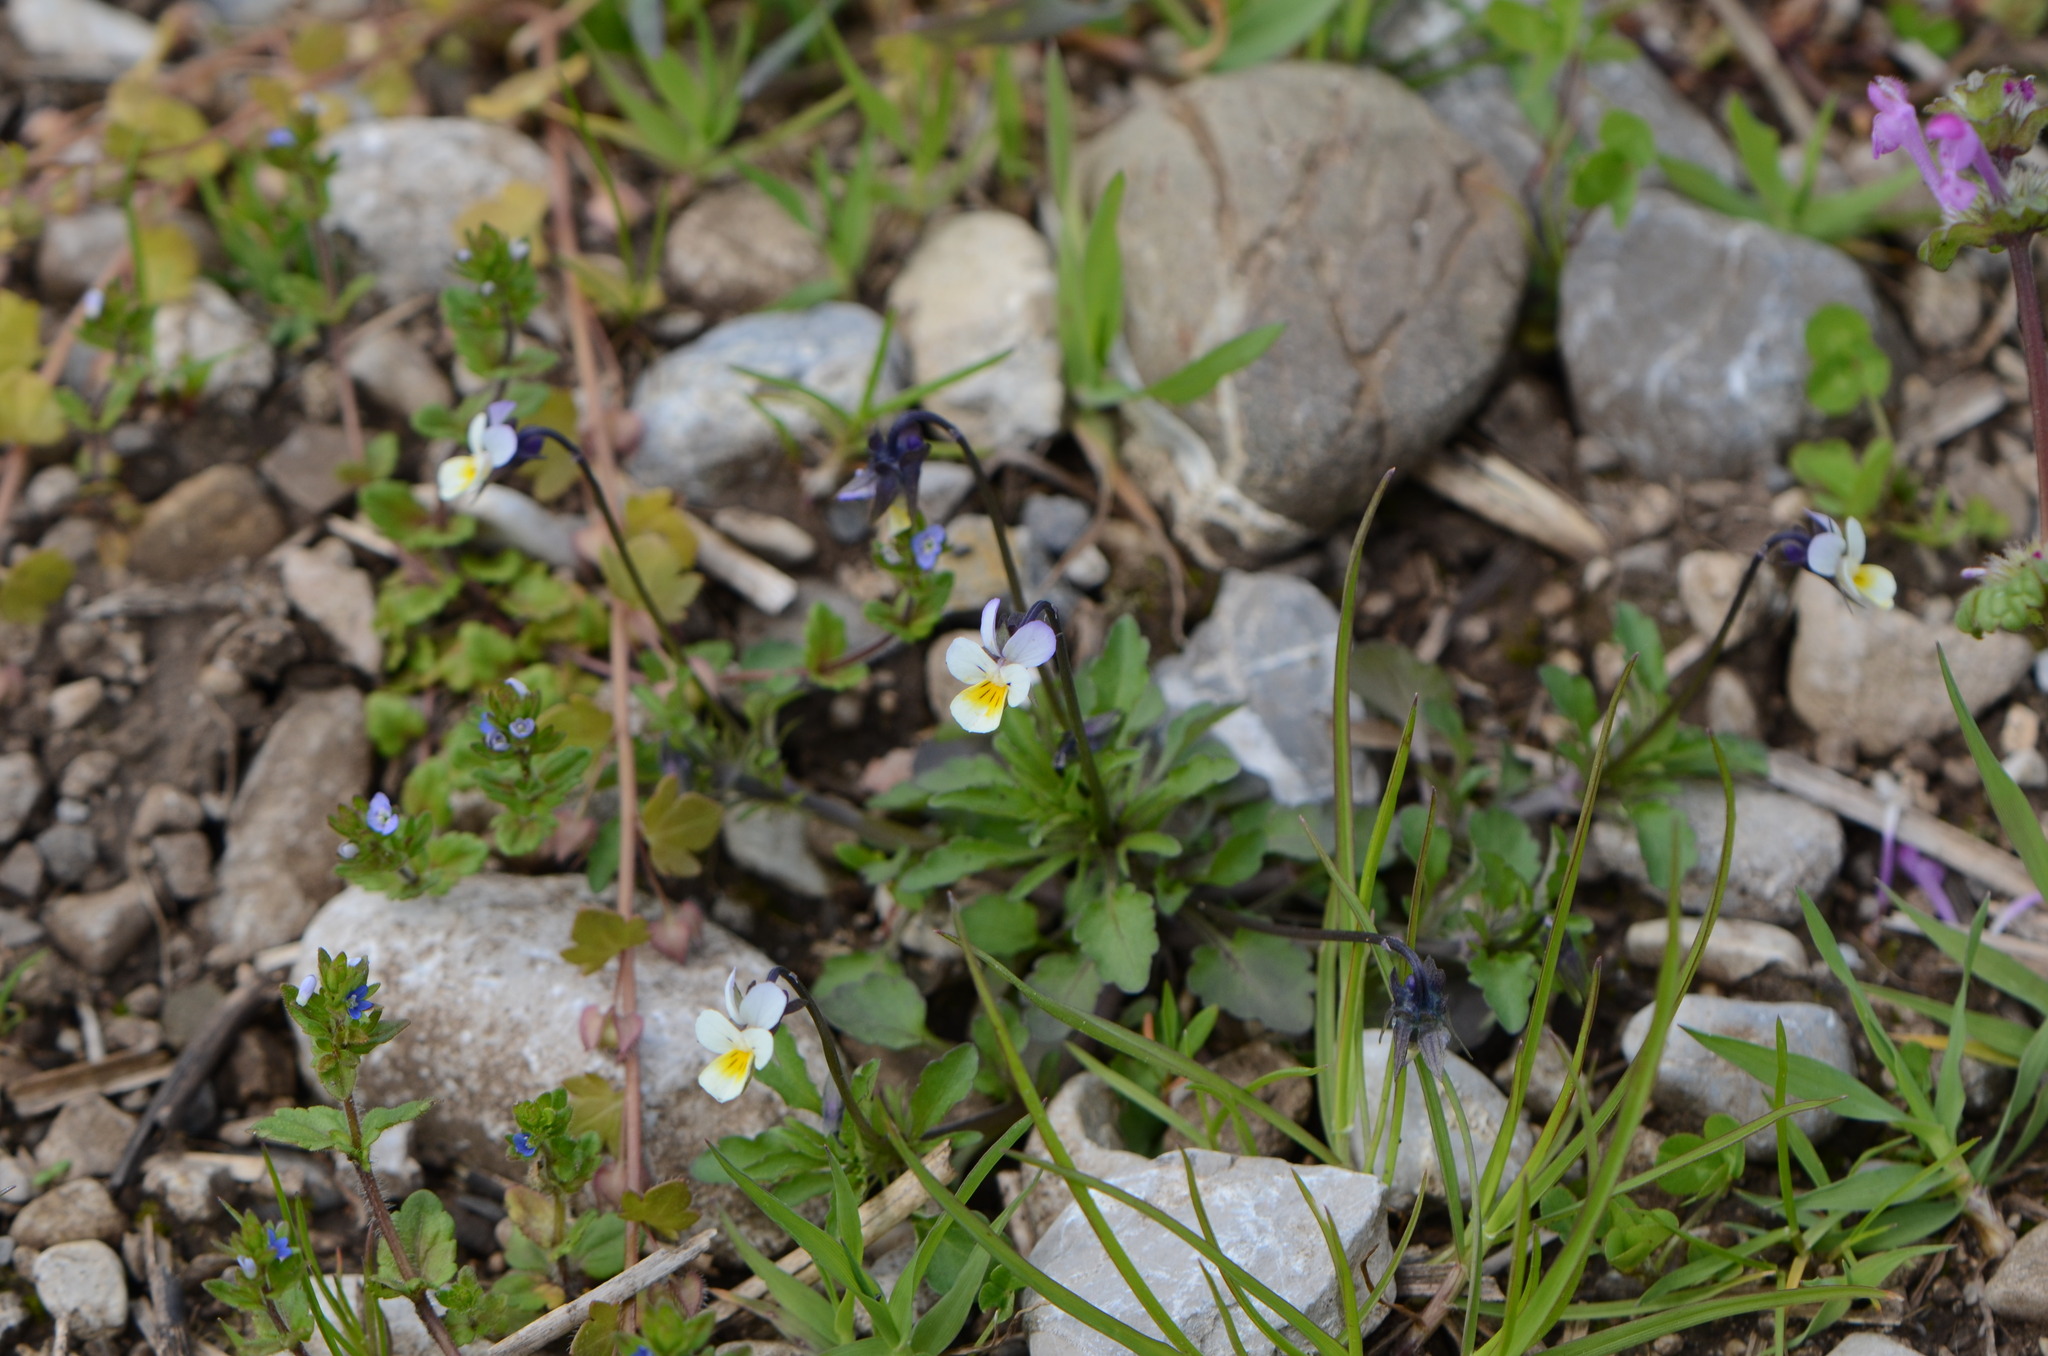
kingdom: Plantae
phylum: Tracheophyta
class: Magnoliopsida
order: Malpighiales
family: Violaceae
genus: Viola
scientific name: Viola arvensis
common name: Field pansy
